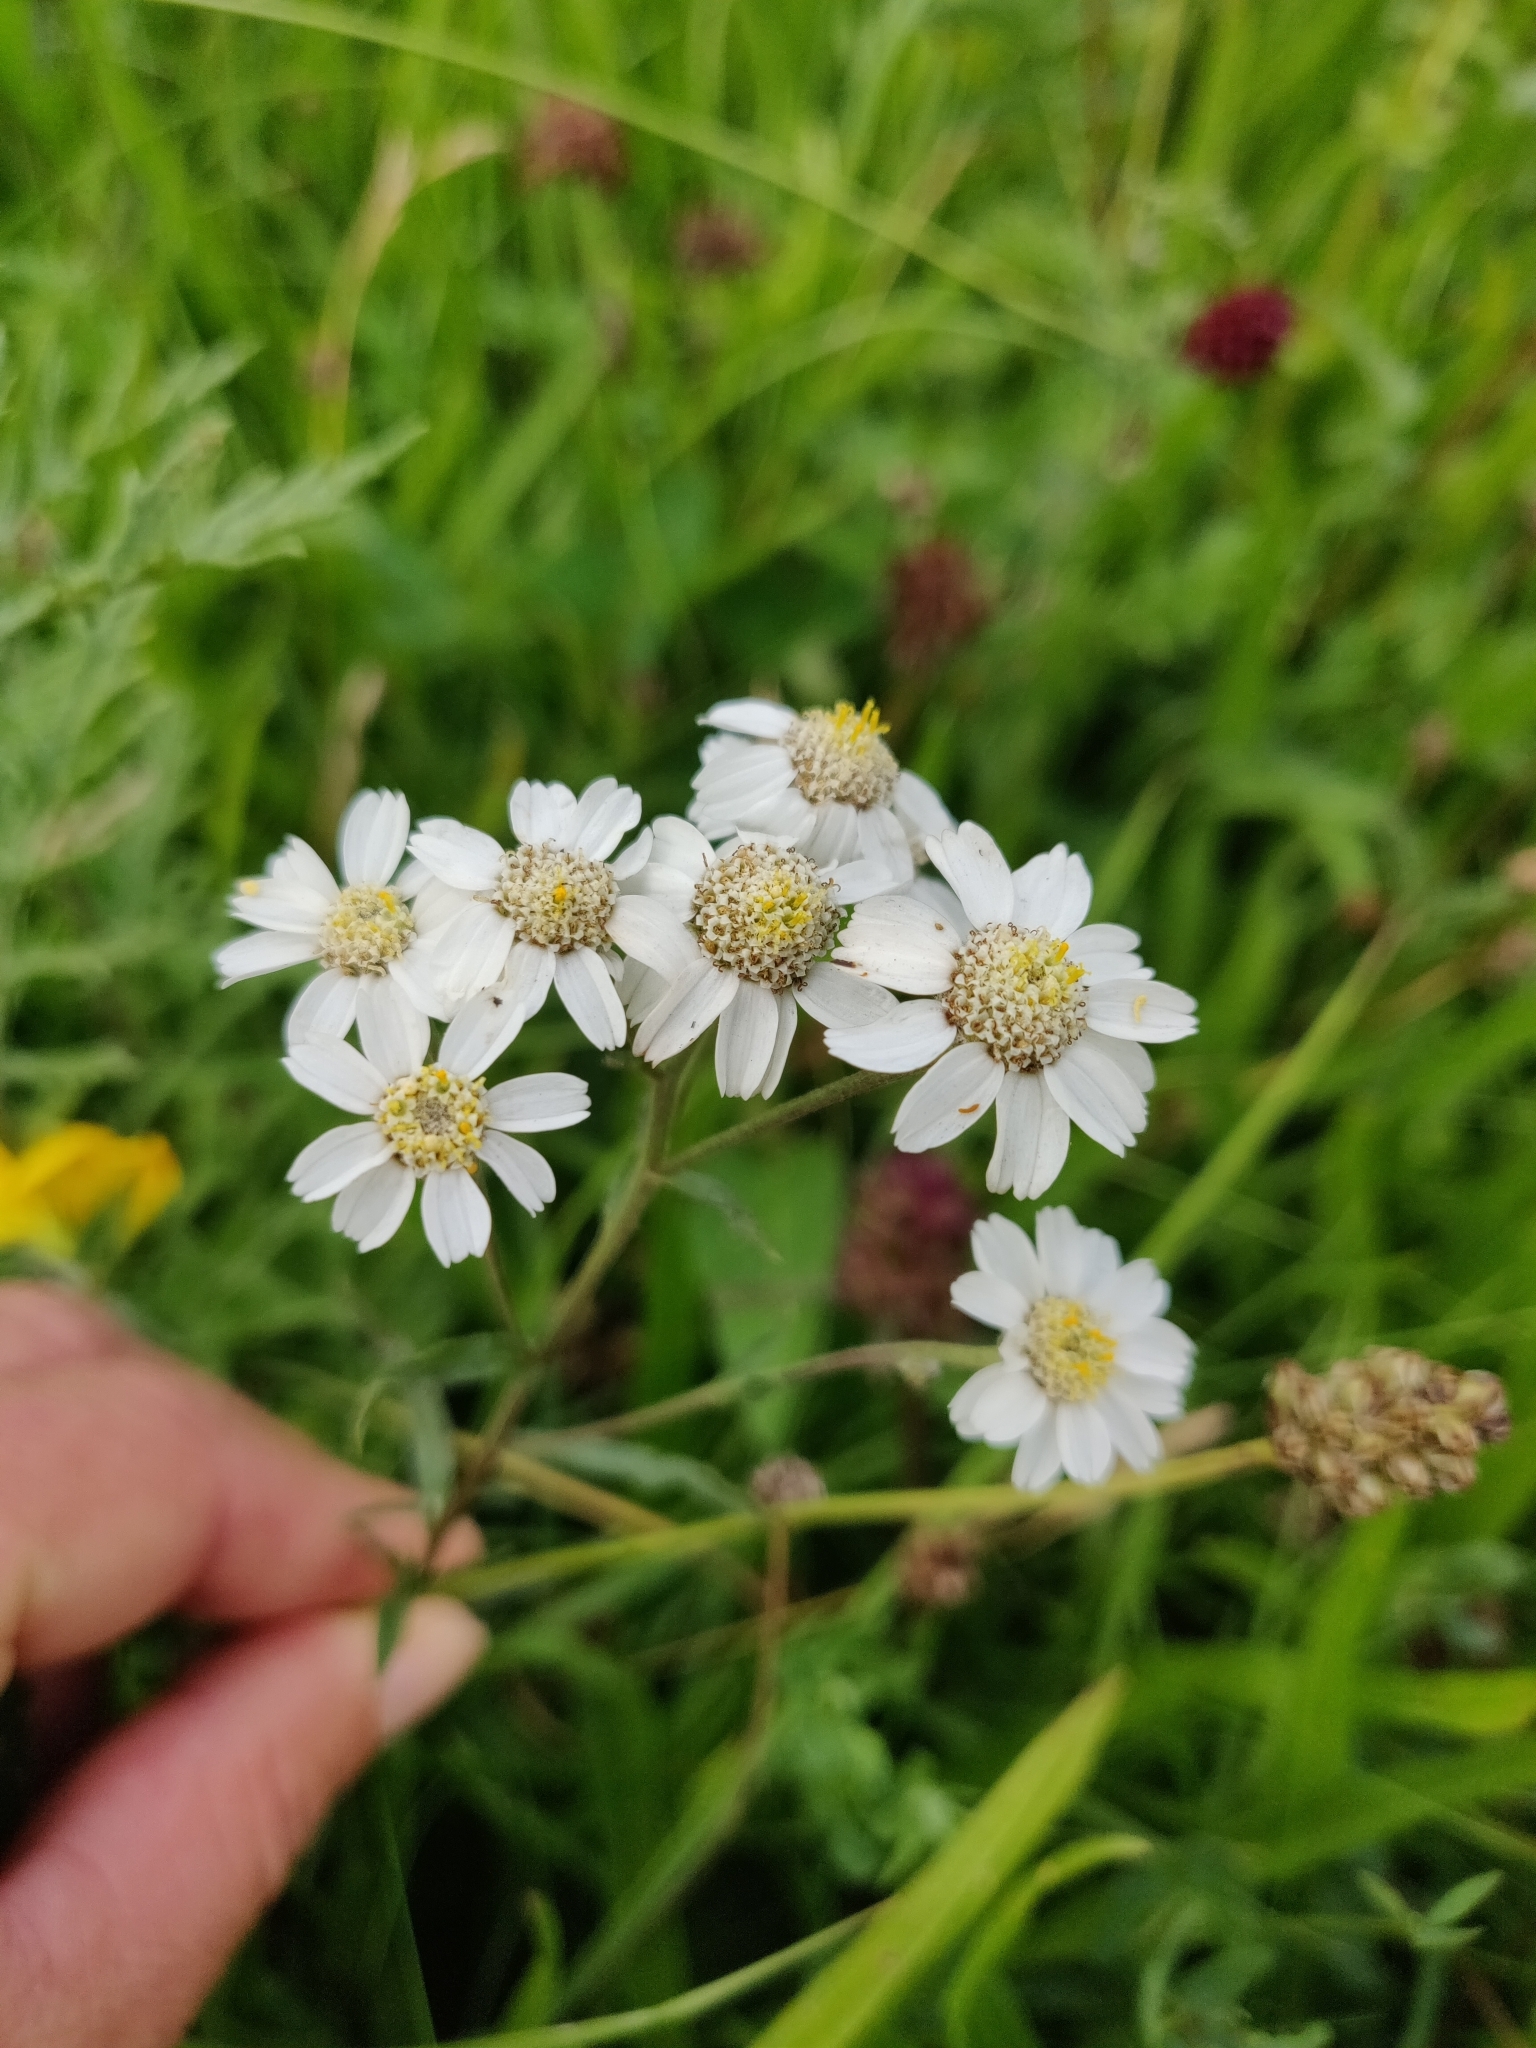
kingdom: Plantae
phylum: Tracheophyta
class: Magnoliopsida
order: Asterales
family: Asteraceae
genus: Achillea
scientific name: Achillea ptarmica
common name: Sneezeweed
